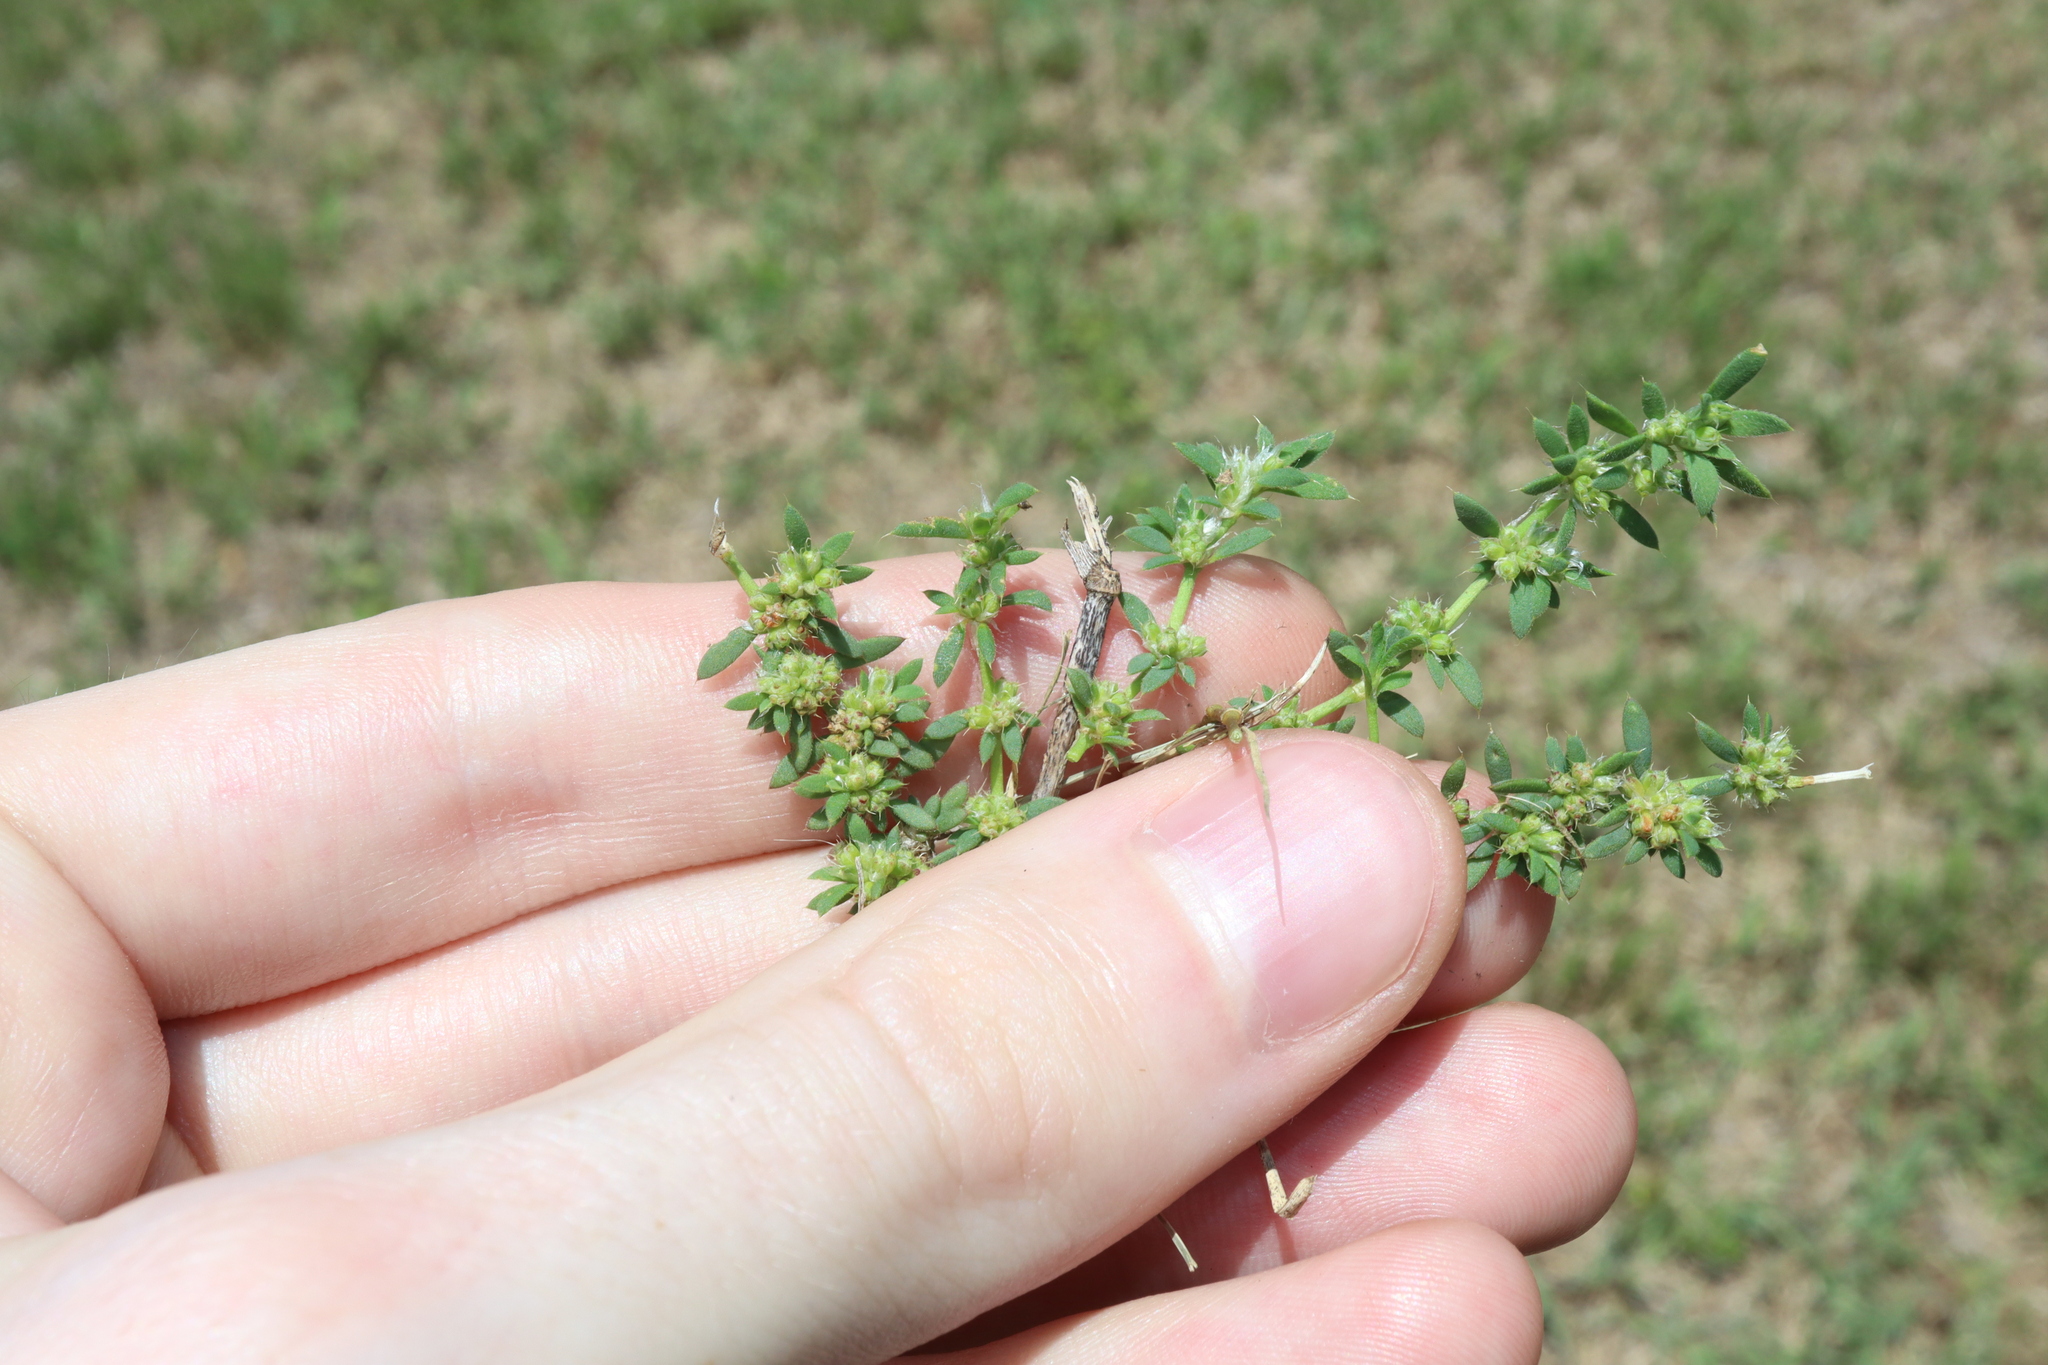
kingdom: Plantae
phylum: Tracheophyta
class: Magnoliopsida
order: Caryophyllales
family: Caryophyllaceae
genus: Paronychia
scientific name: Paronychia brasiliana
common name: Brazilian whitlow
